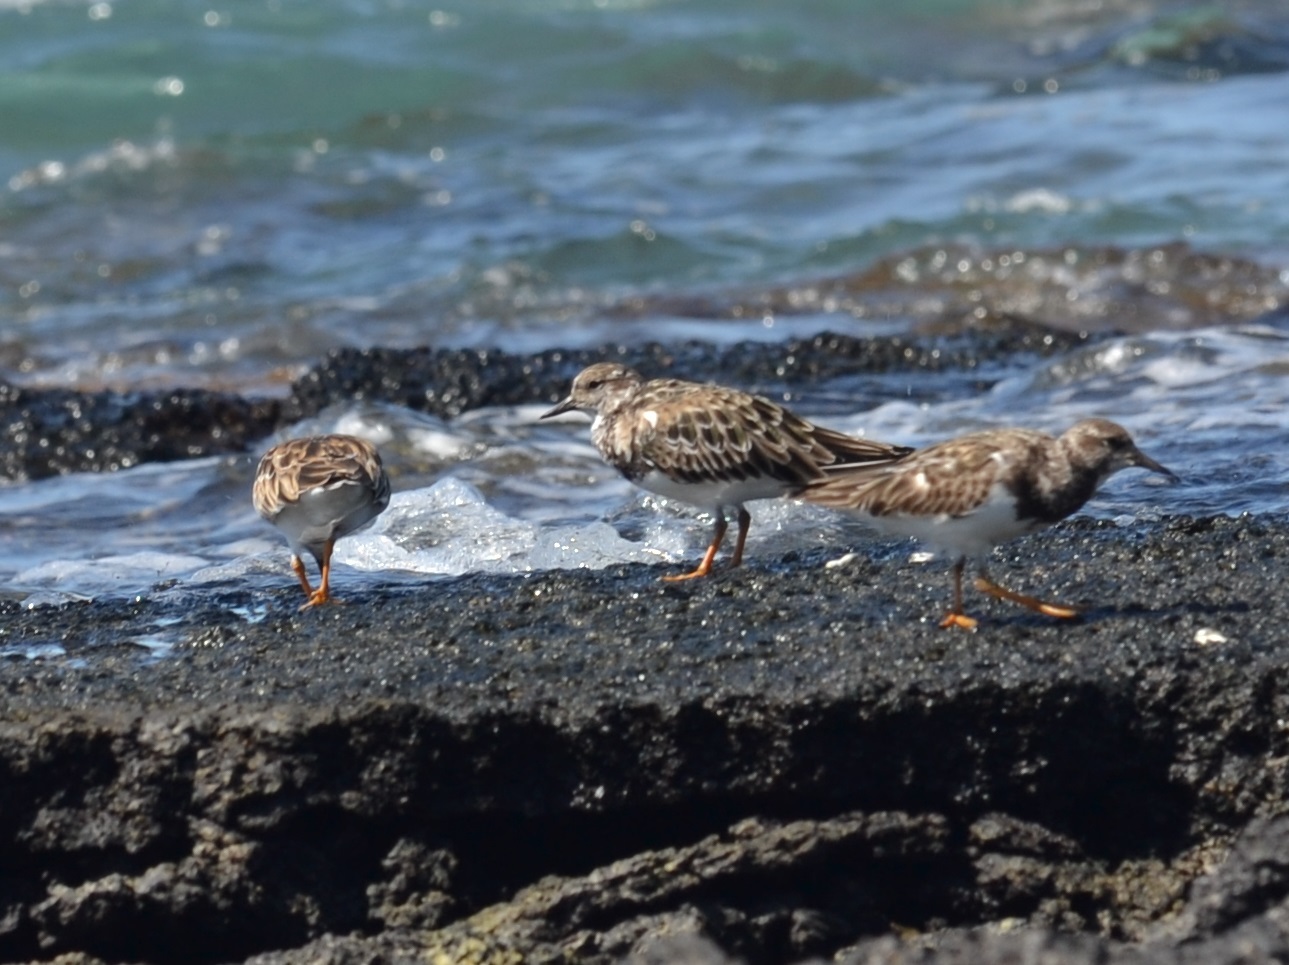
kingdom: Animalia
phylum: Chordata
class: Aves
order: Charadriiformes
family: Scolopacidae
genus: Arenaria
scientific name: Arenaria interpres
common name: Ruddy turnstone
